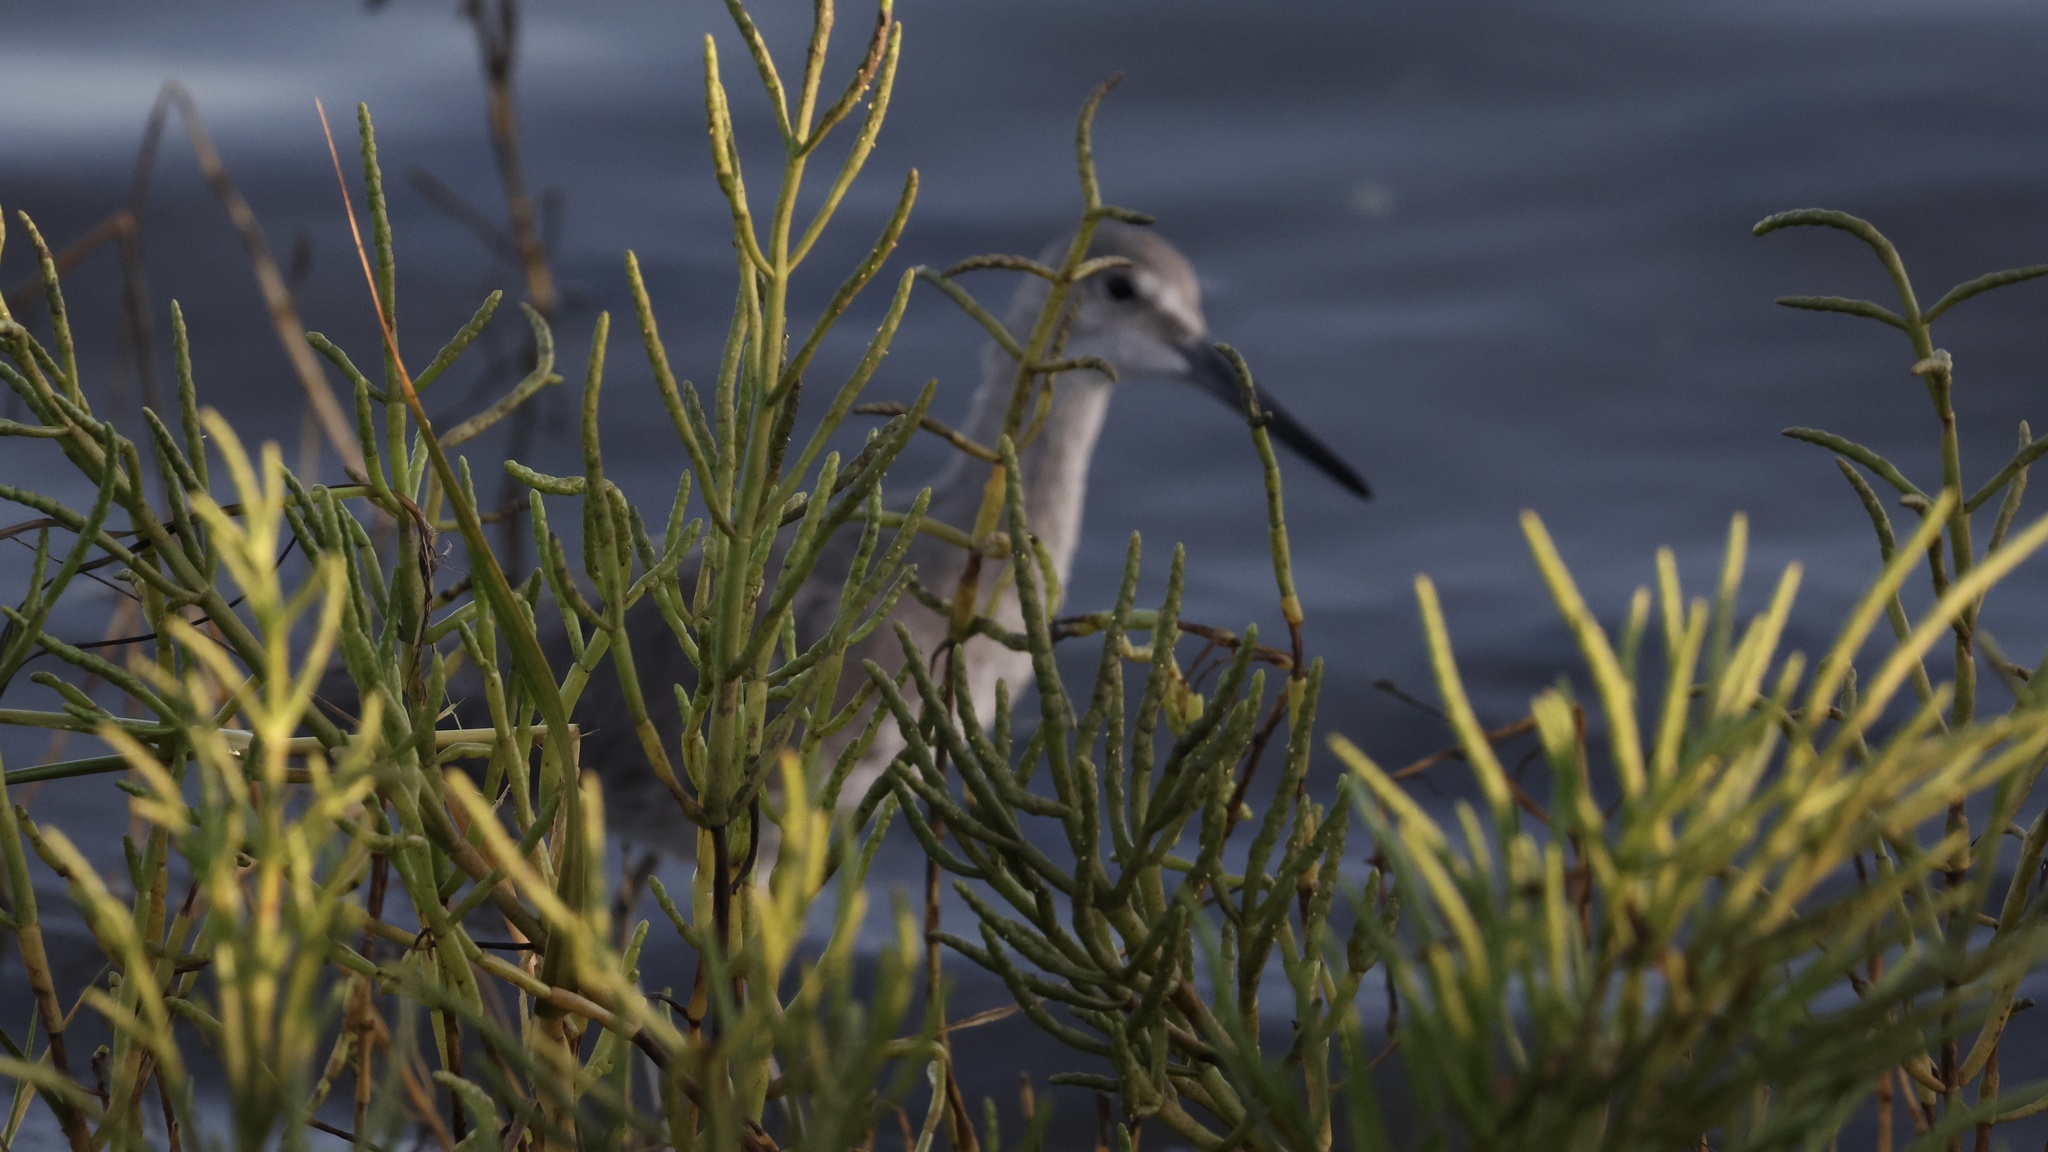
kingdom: Animalia
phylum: Chordata
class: Aves
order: Charadriiformes
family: Scolopacidae
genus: Tringa
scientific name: Tringa semipalmata
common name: Willet
